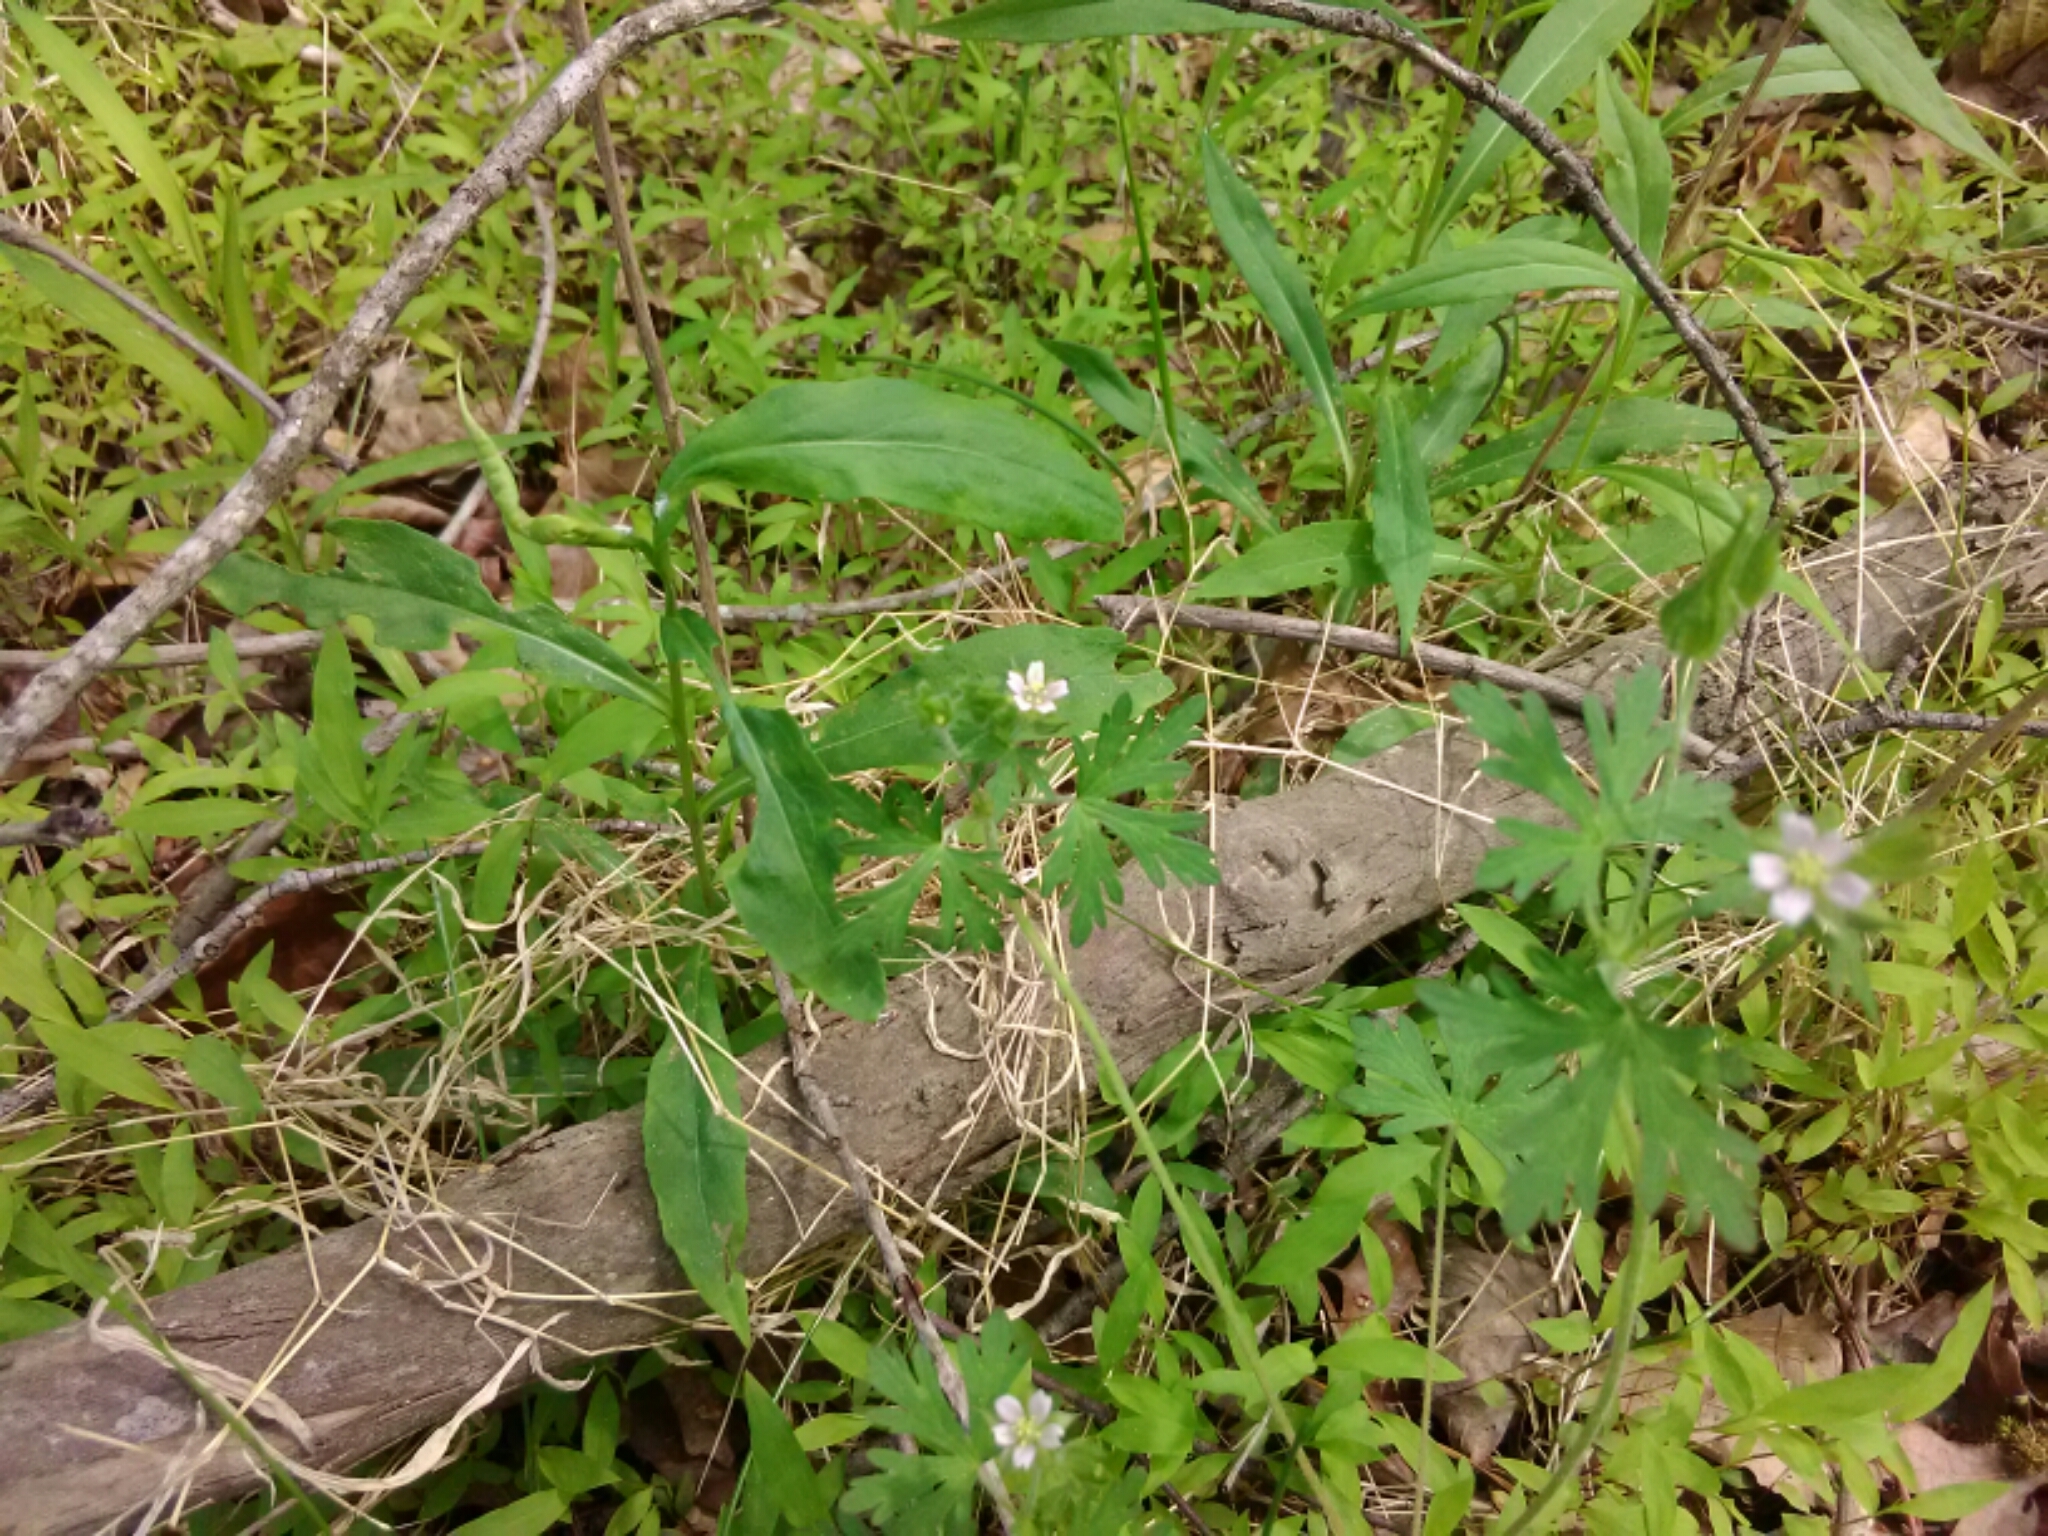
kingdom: Plantae
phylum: Tracheophyta
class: Magnoliopsida
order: Geraniales
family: Geraniaceae
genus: Geranium
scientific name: Geranium carolinianum
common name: Carolina crane's-bill
